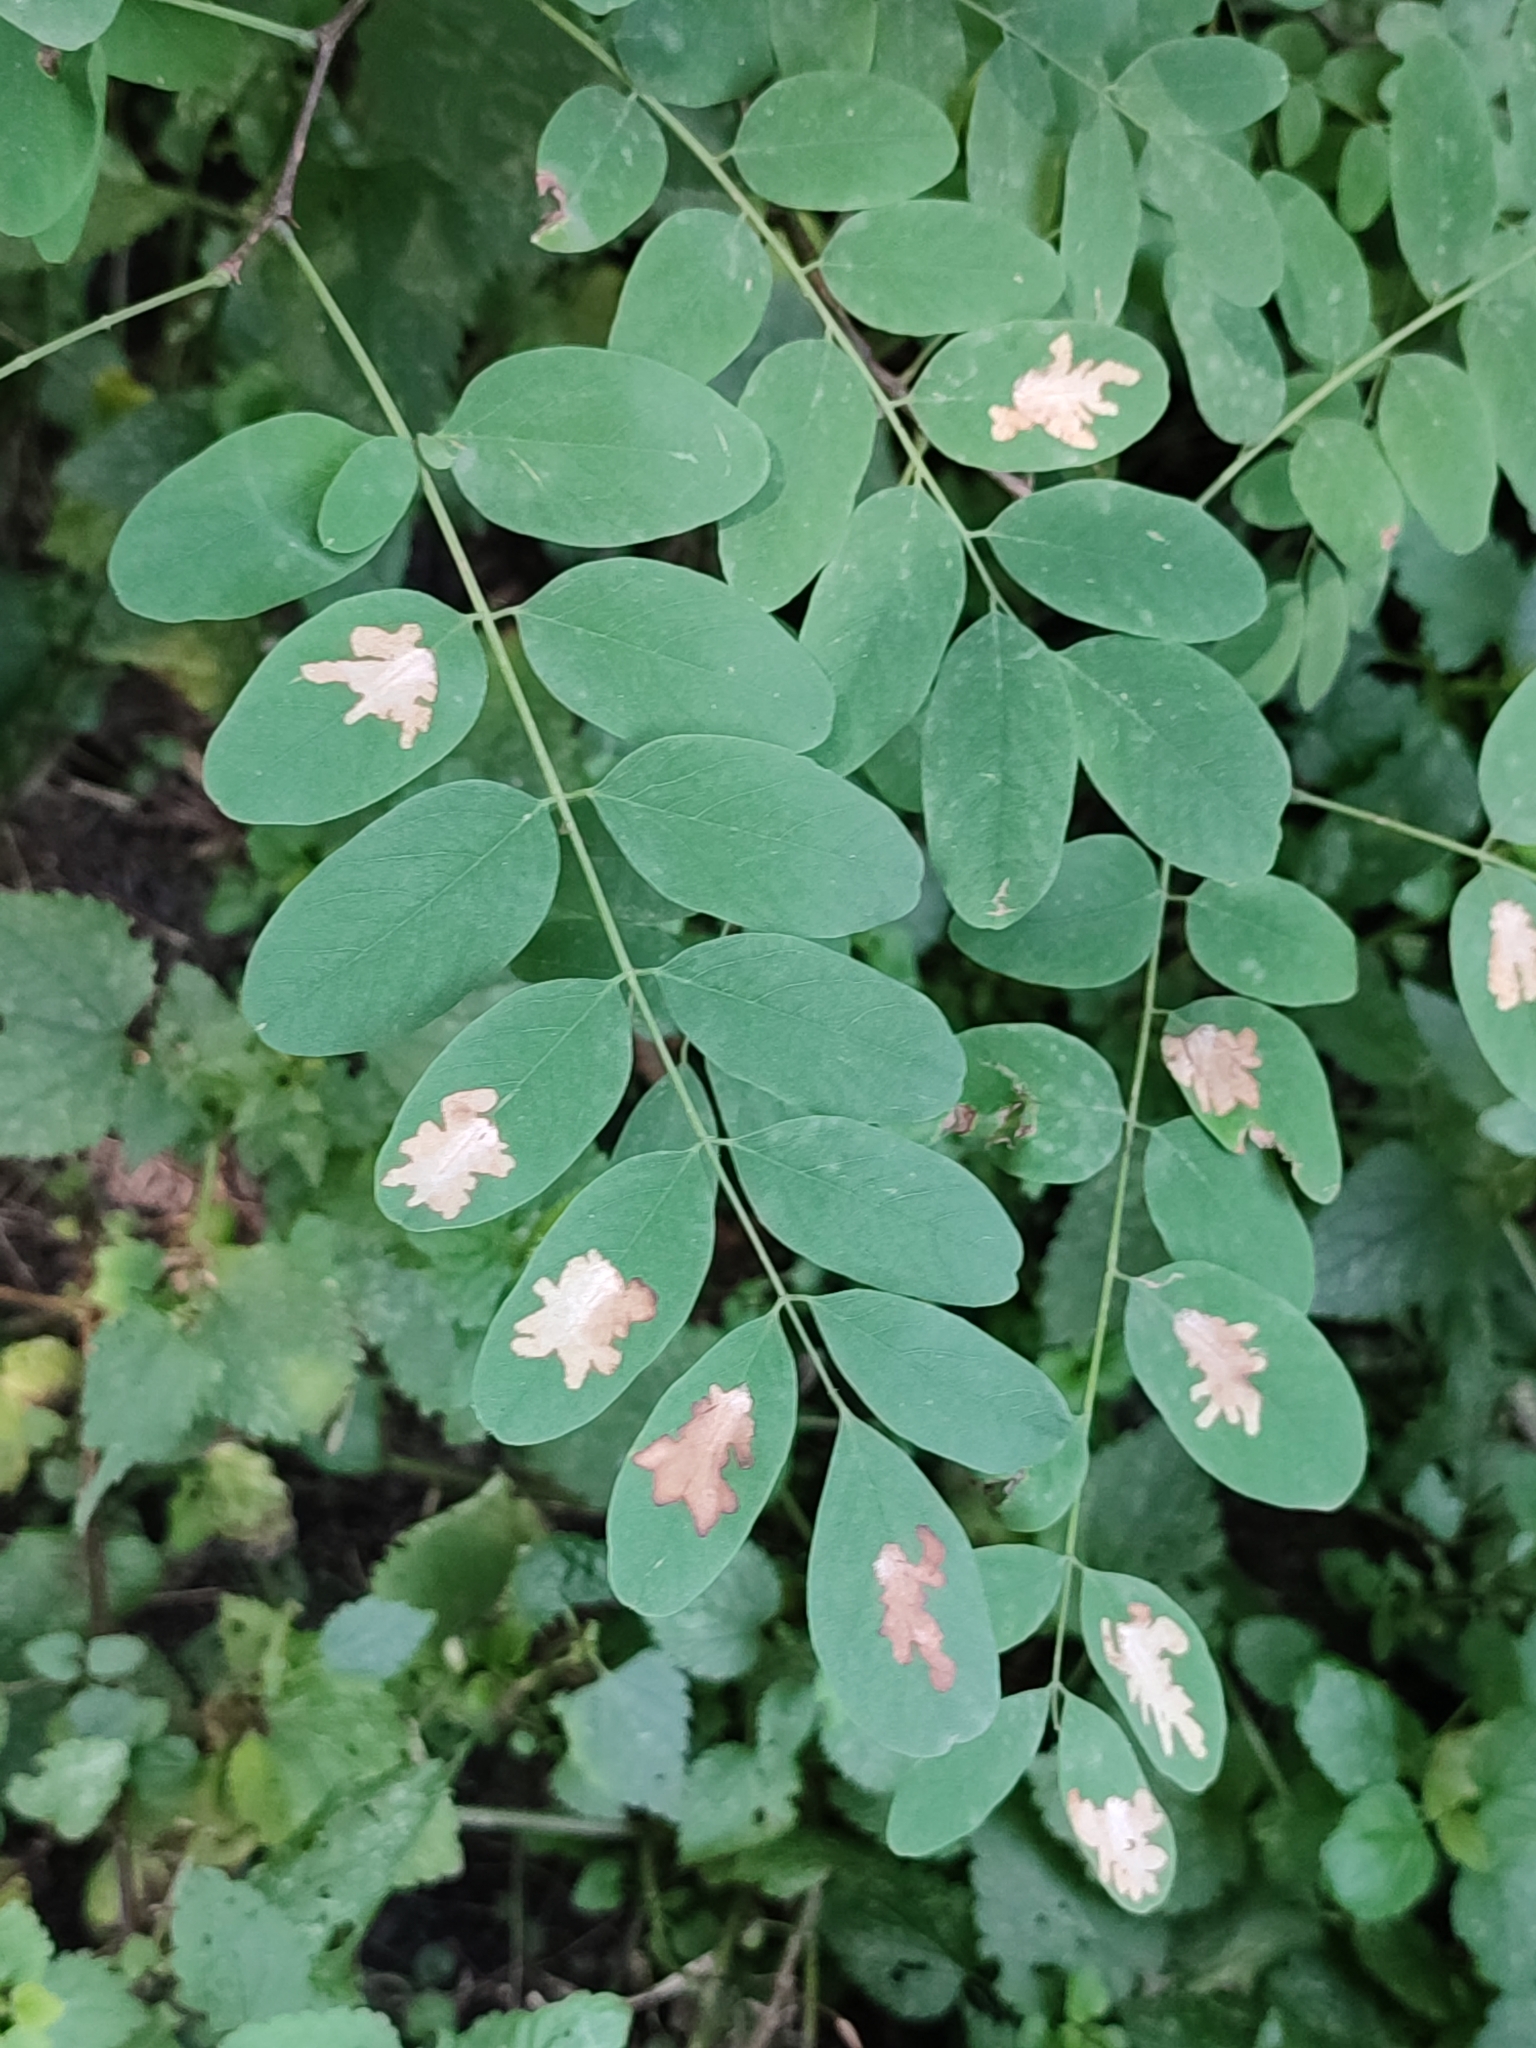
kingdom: Animalia
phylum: Arthropoda
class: Insecta
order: Lepidoptera
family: Gracillariidae
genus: Parectopa
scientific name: Parectopa robiniella
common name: Locust digitate leafminer
